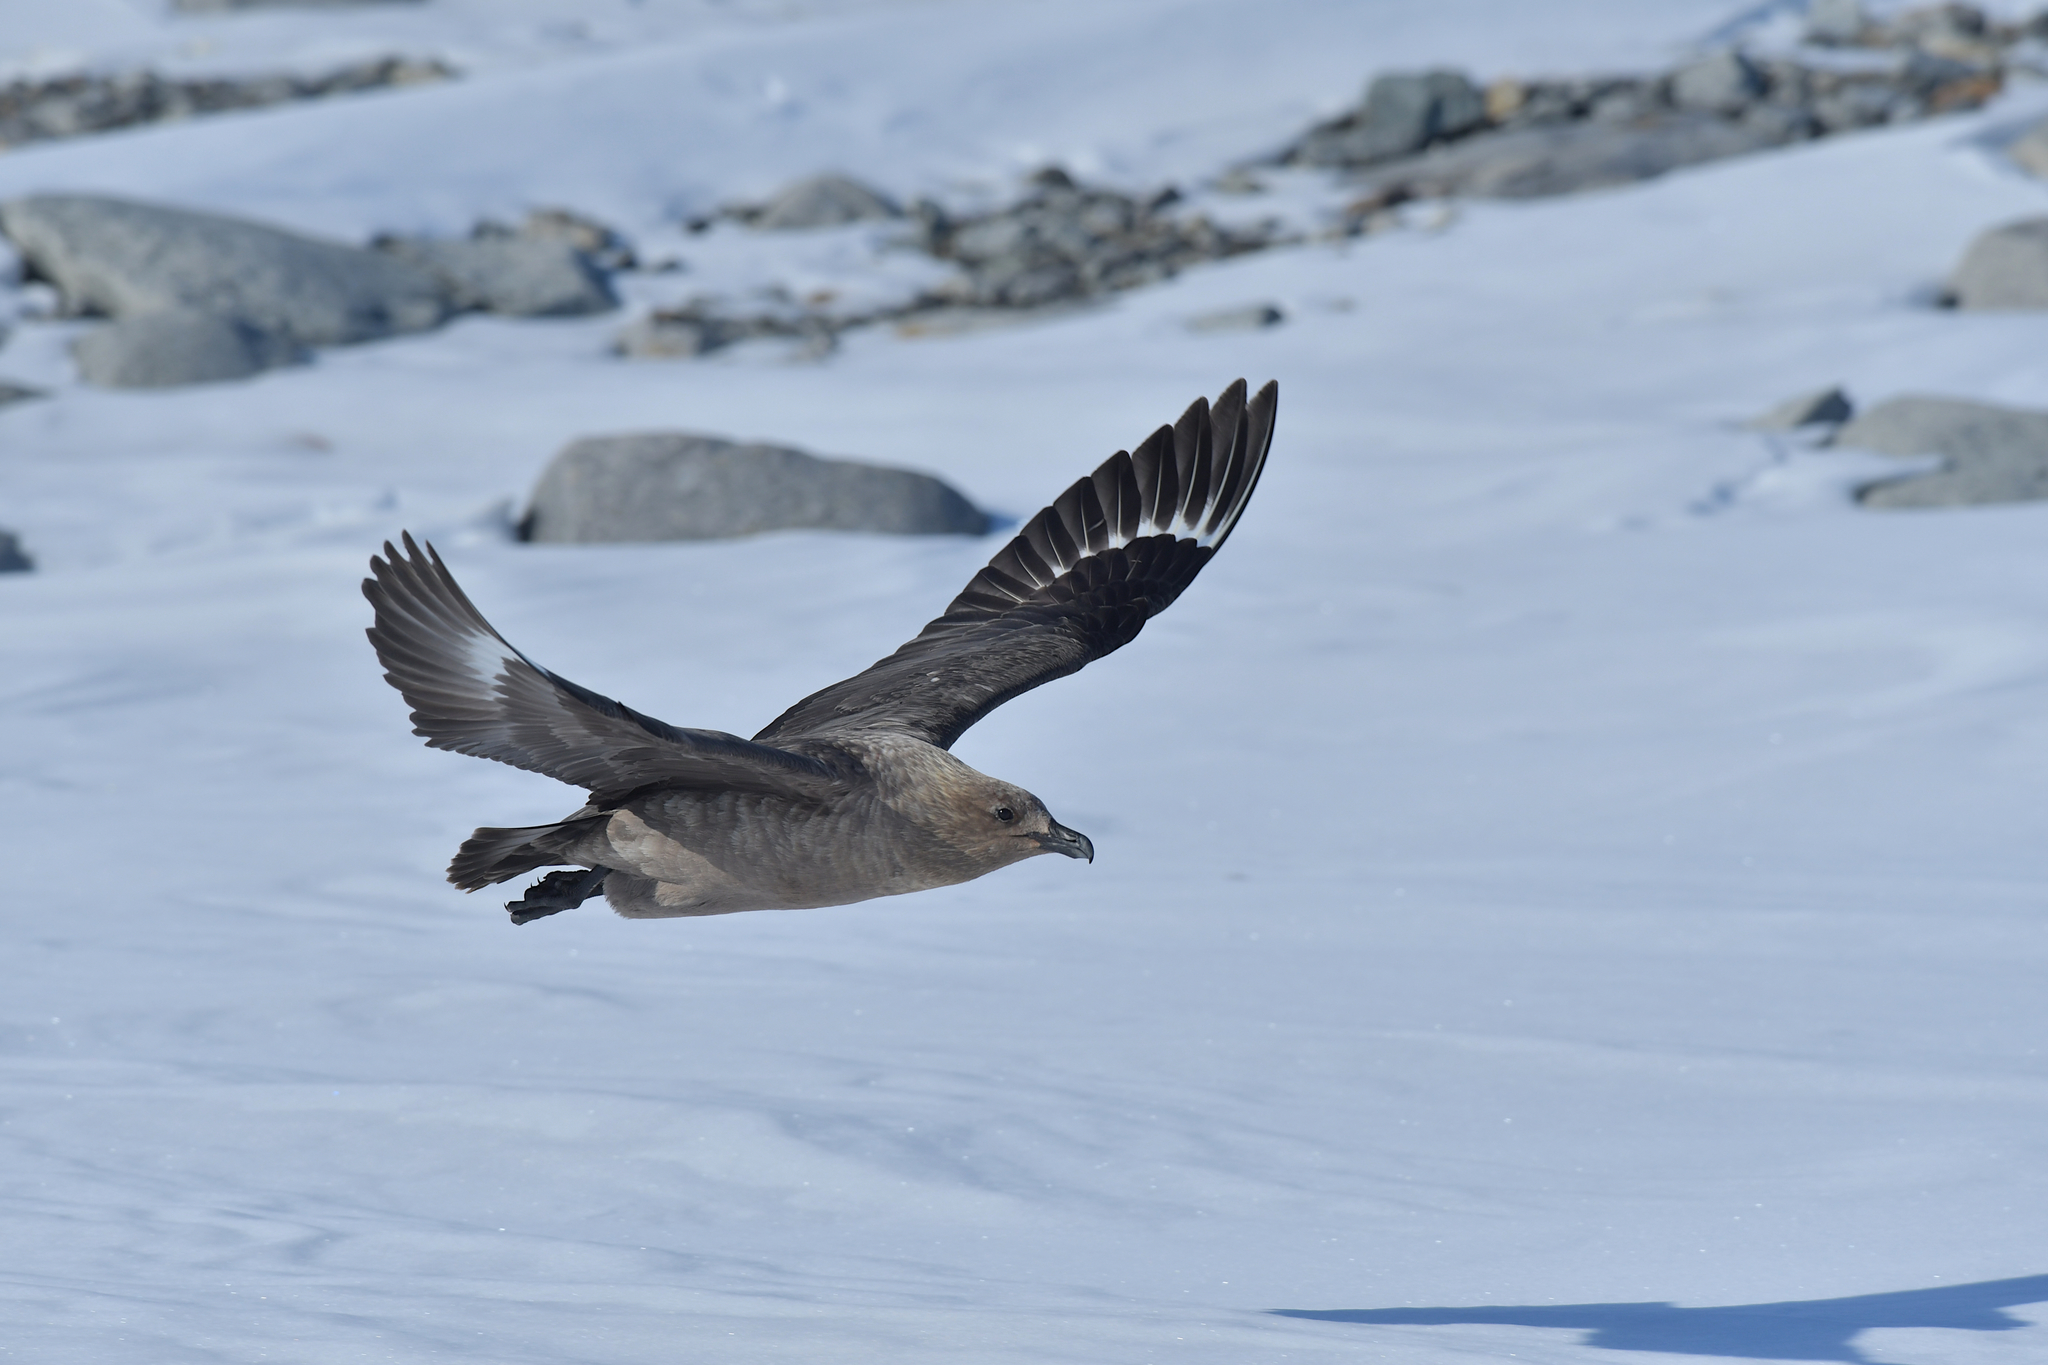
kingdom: Animalia
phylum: Chordata
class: Aves
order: Charadriiformes
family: Stercorariidae
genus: Stercorarius
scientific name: Stercorarius maccormicki
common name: South polar skua
